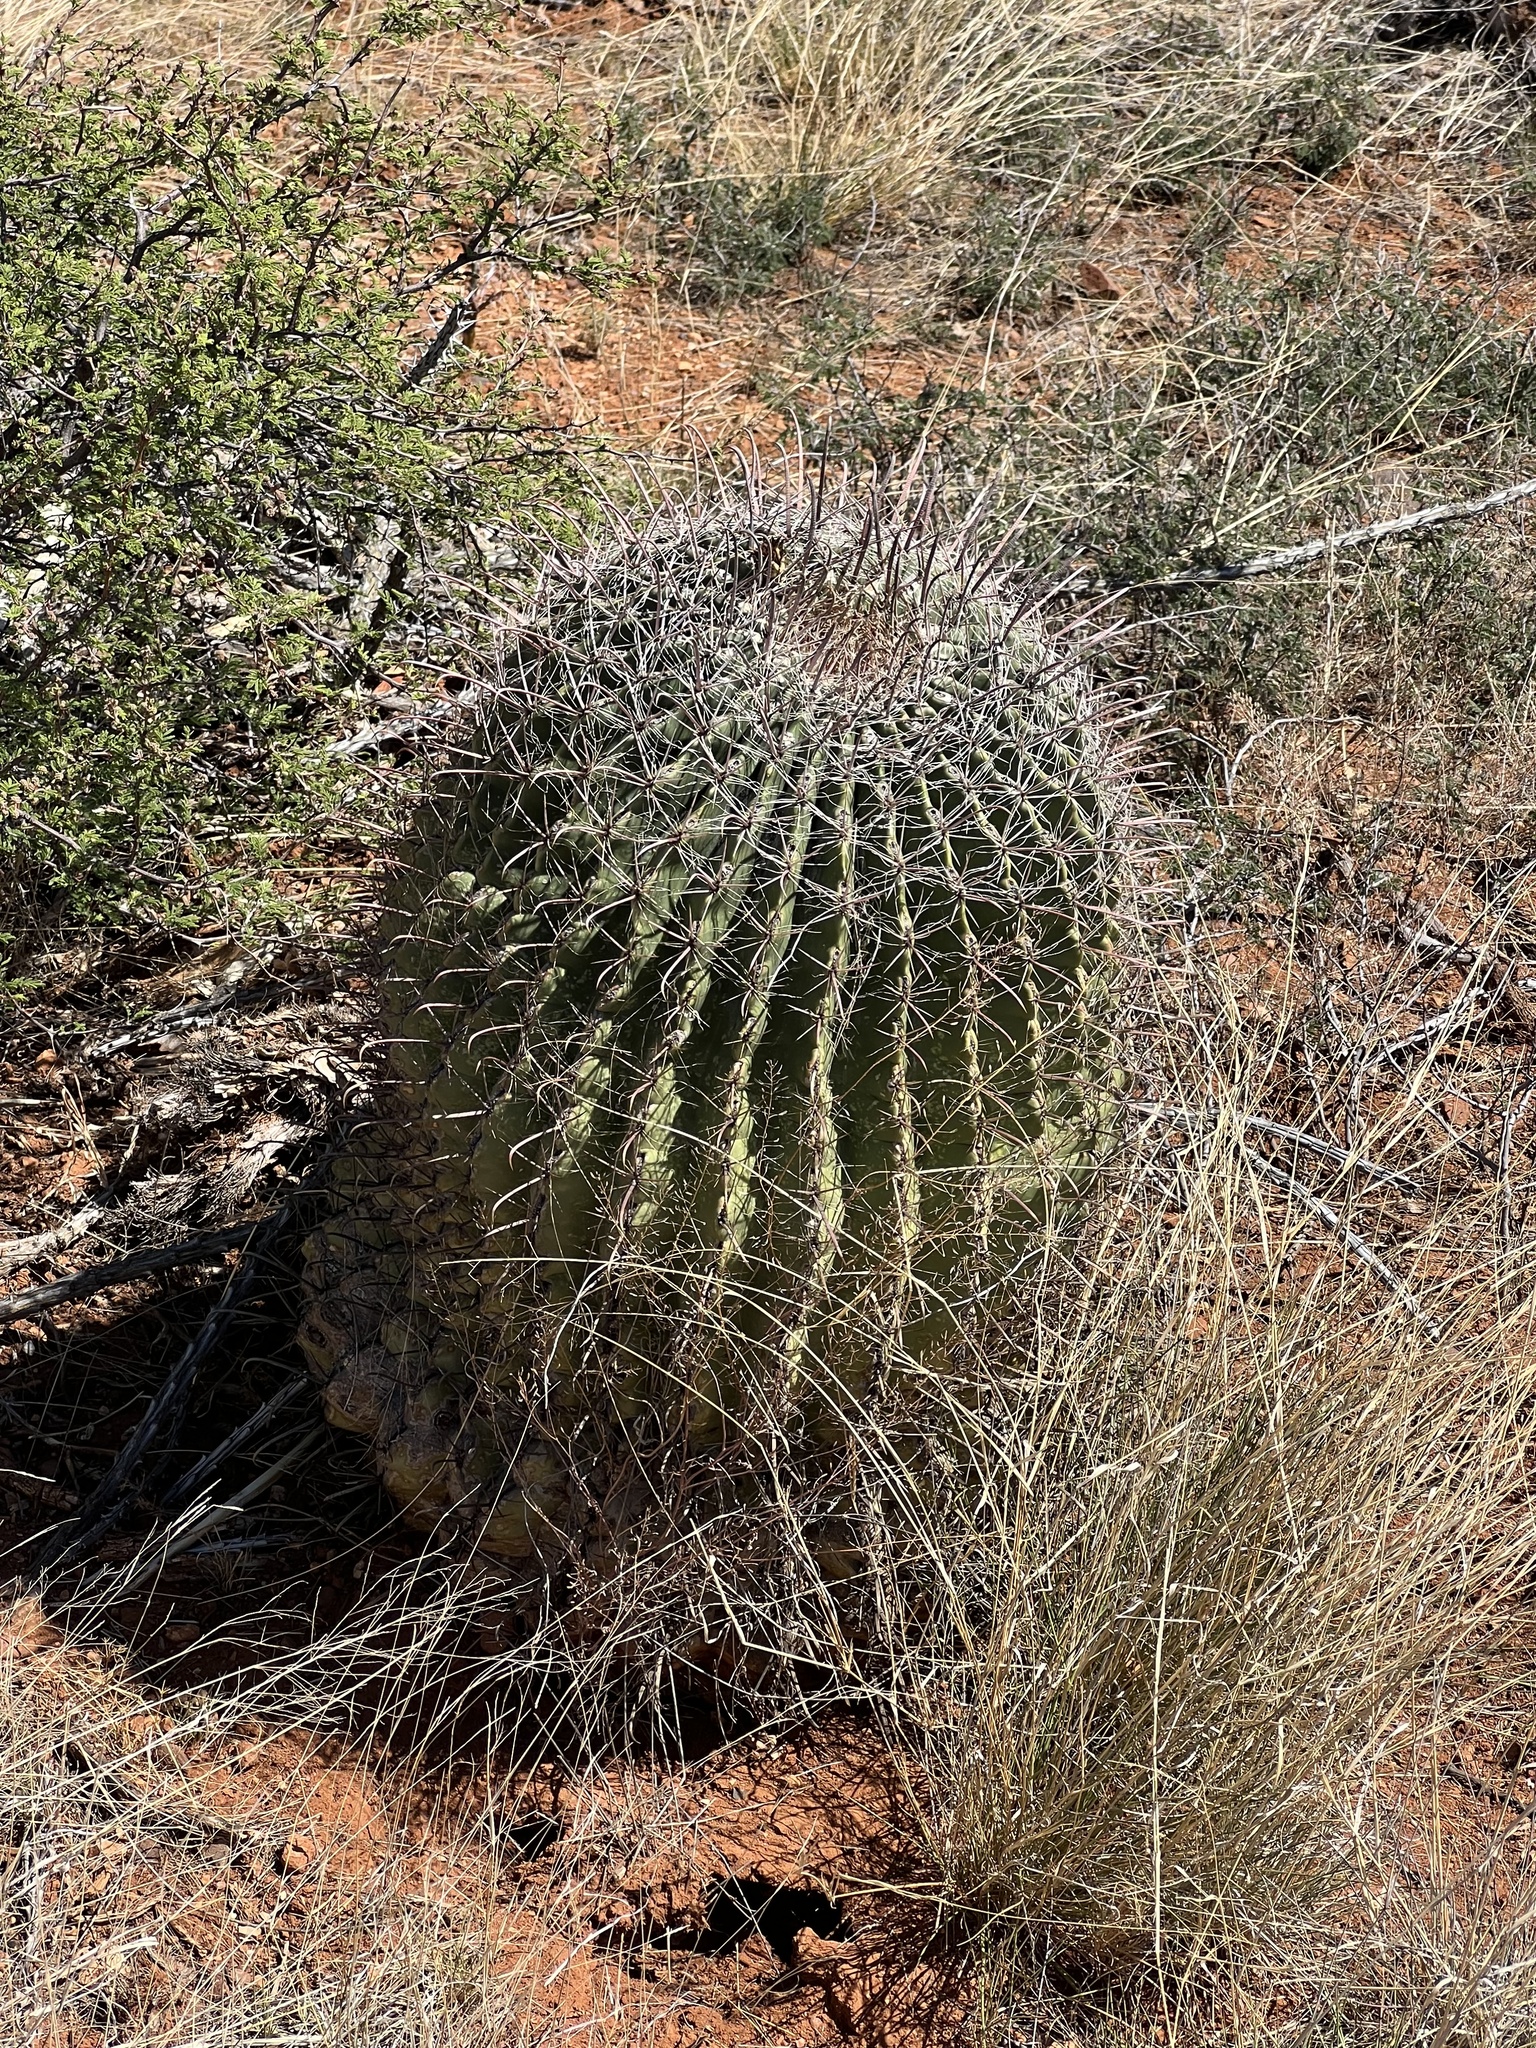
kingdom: Plantae
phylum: Tracheophyta
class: Magnoliopsida
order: Caryophyllales
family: Cactaceae
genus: Ferocactus
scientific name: Ferocactus wislizeni
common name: Candy barrel cactus
